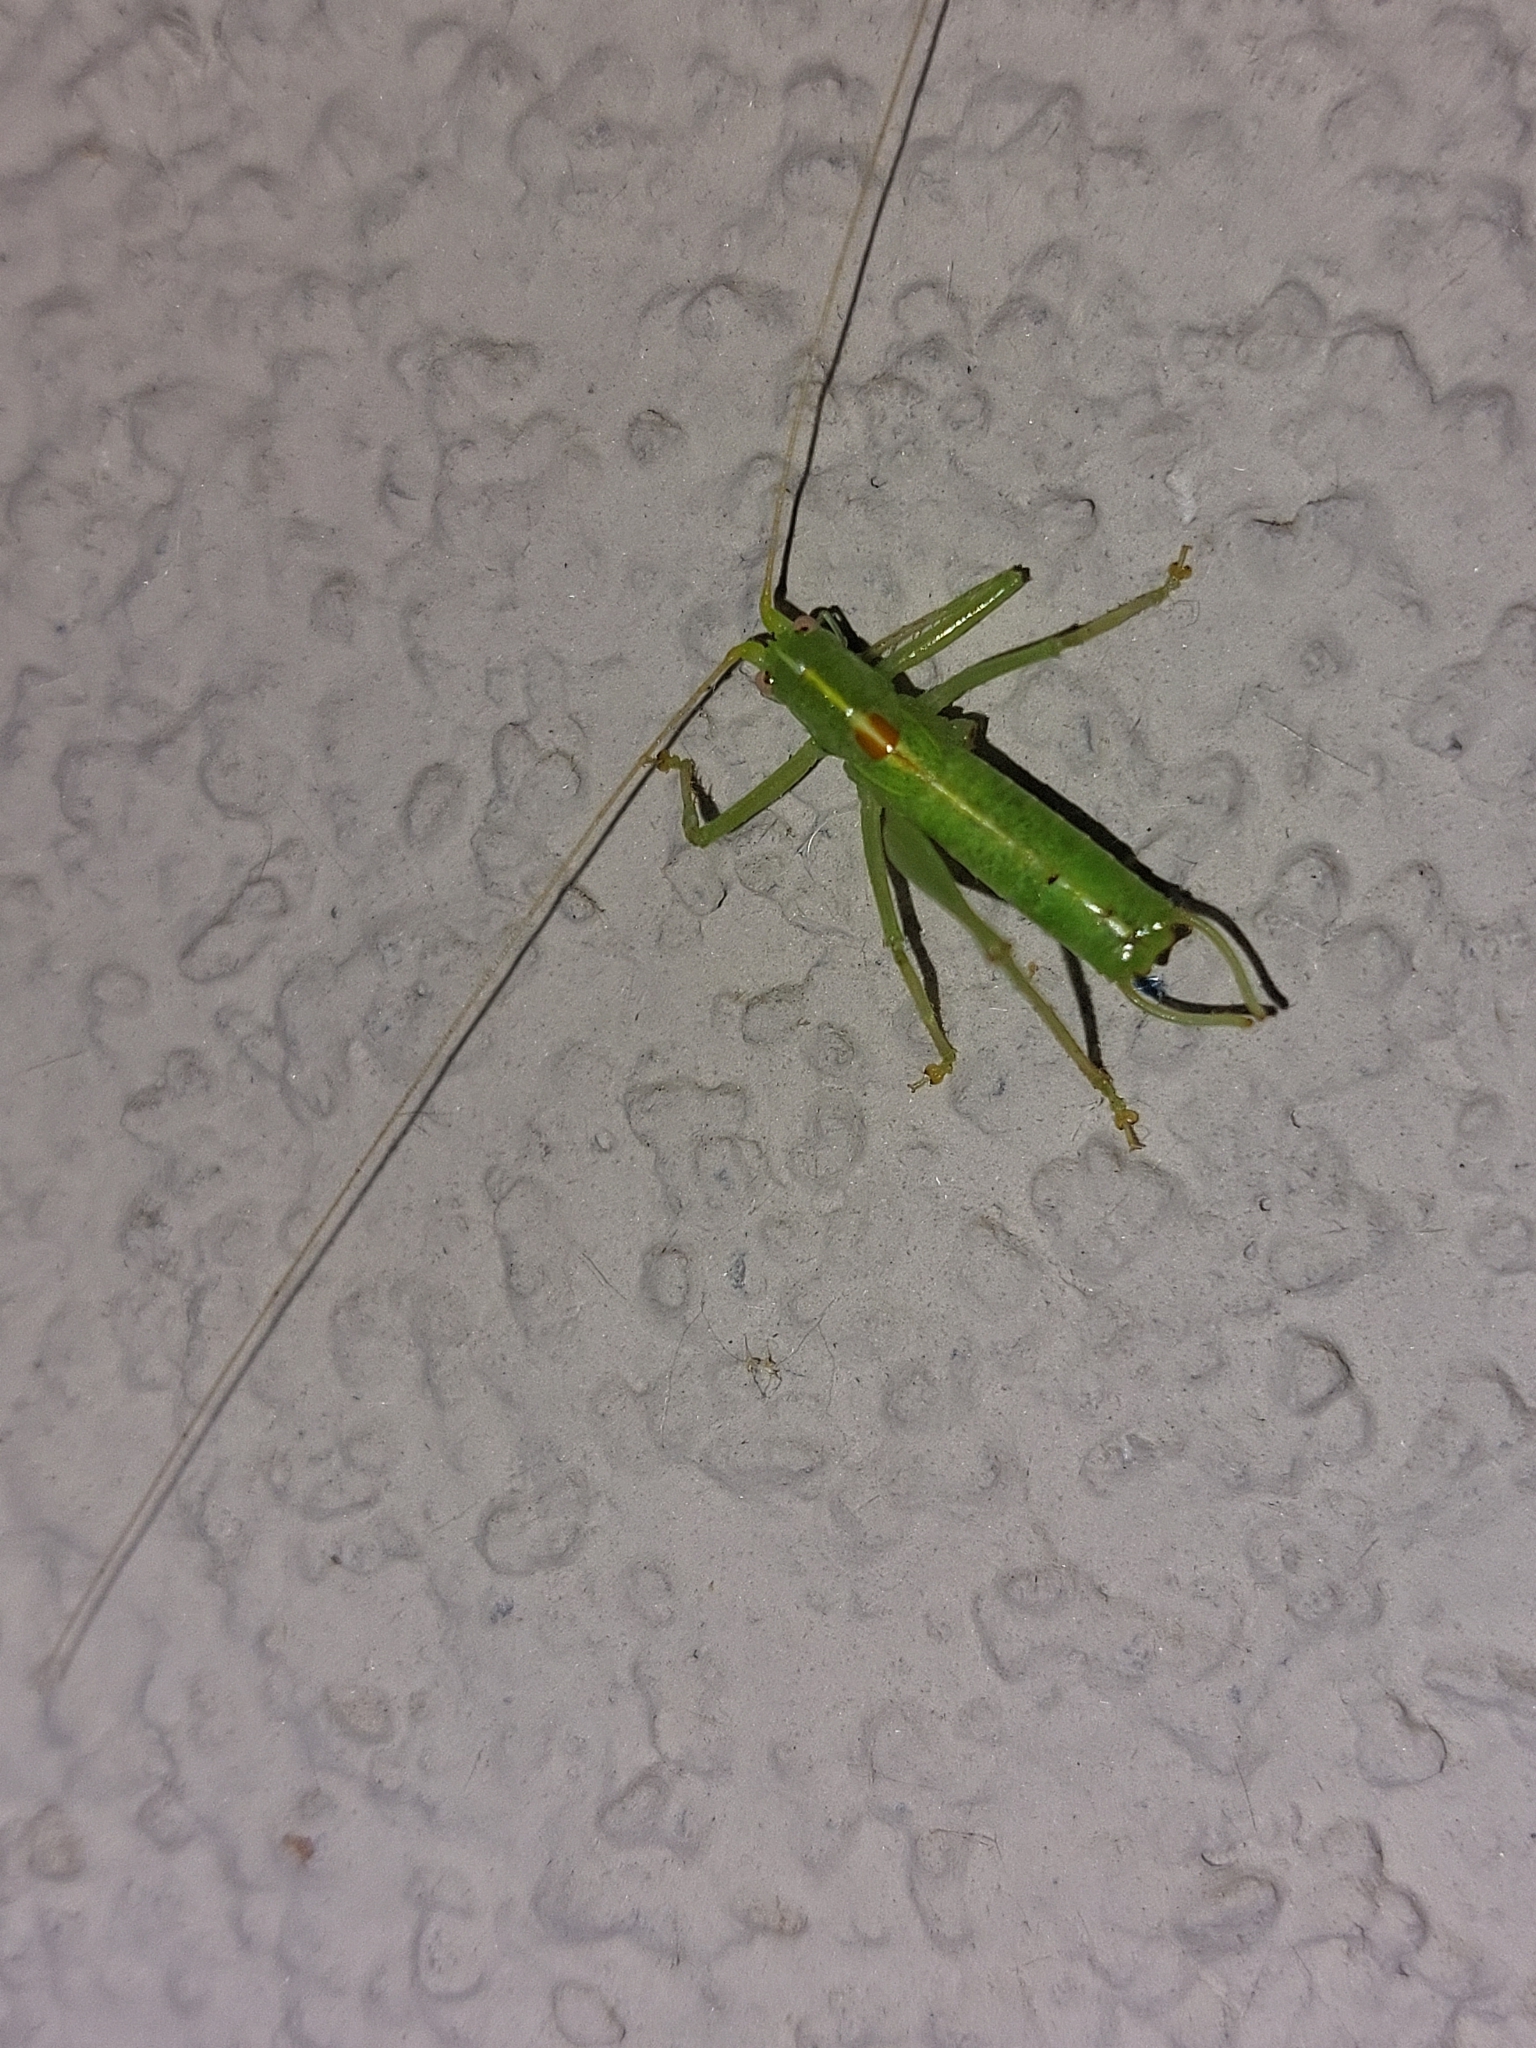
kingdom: Animalia
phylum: Arthropoda
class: Insecta
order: Orthoptera
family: Tettigoniidae
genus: Meconema
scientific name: Meconema meridionale
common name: Southern oak bush-cricket
